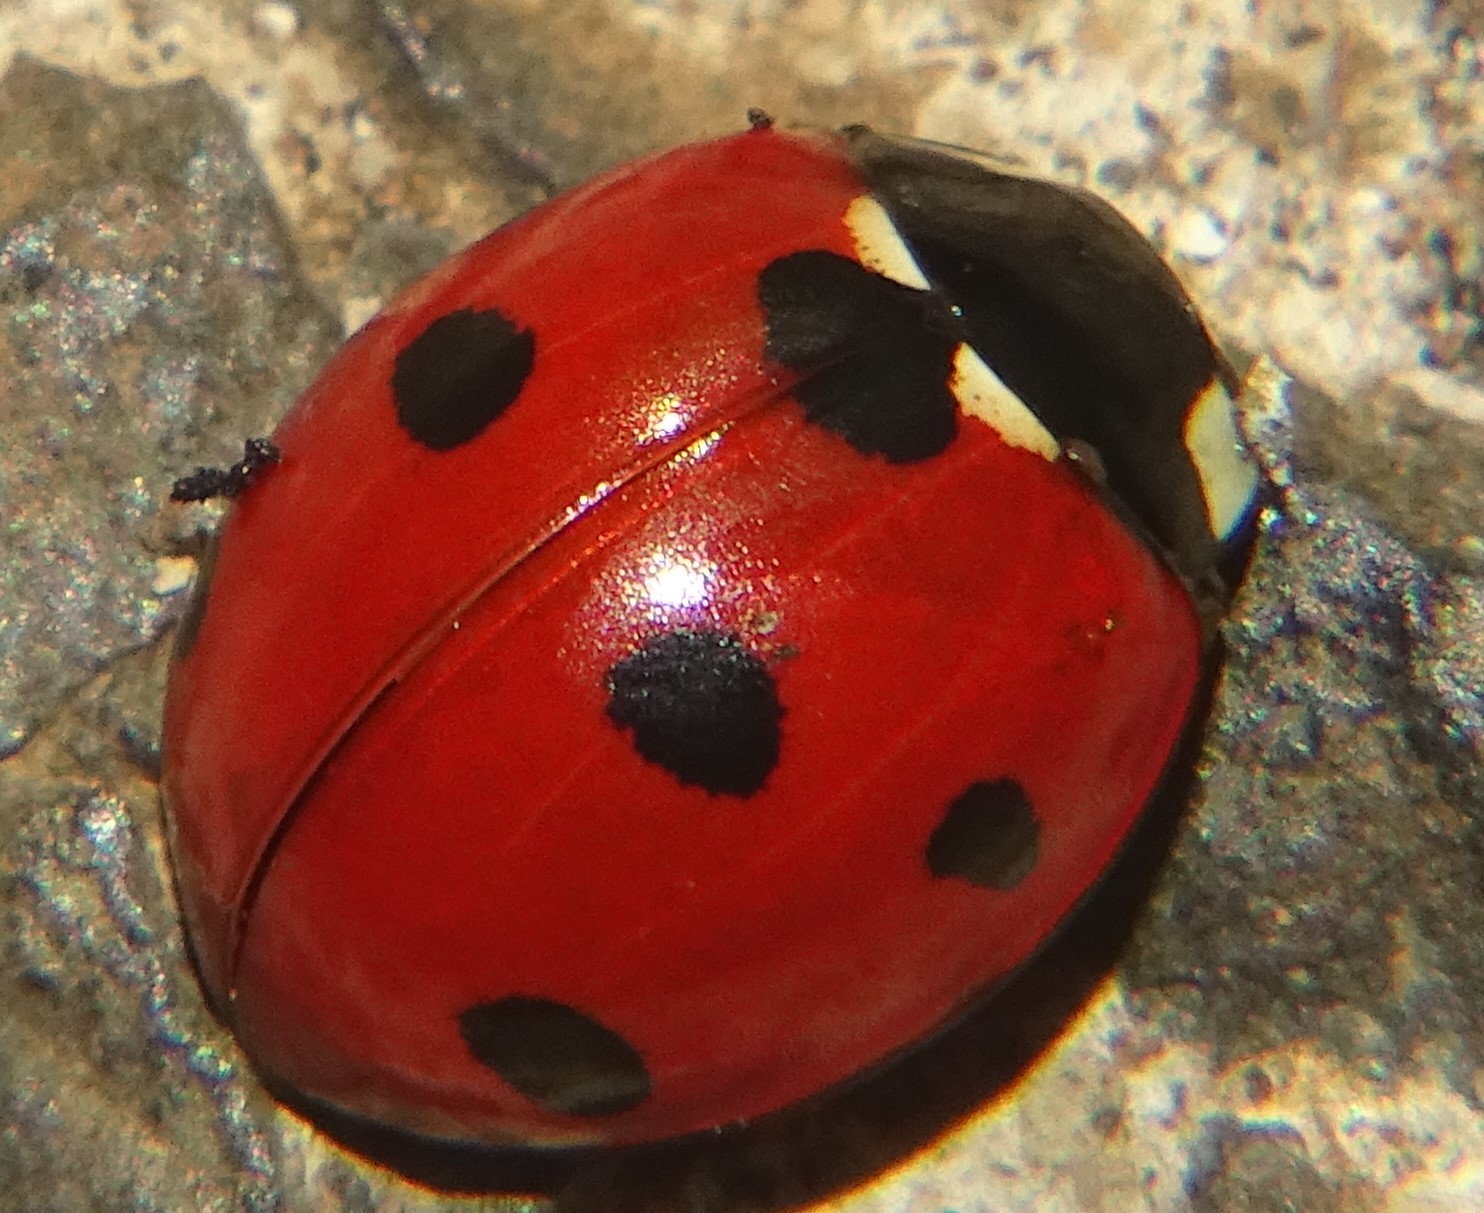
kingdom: Animalia
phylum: Arthropoda
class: Insecta
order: Coleoptera
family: Coccinellidae
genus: Coccinella
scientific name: Coccinella septempunctata
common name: Sevenspotted lady beetle
